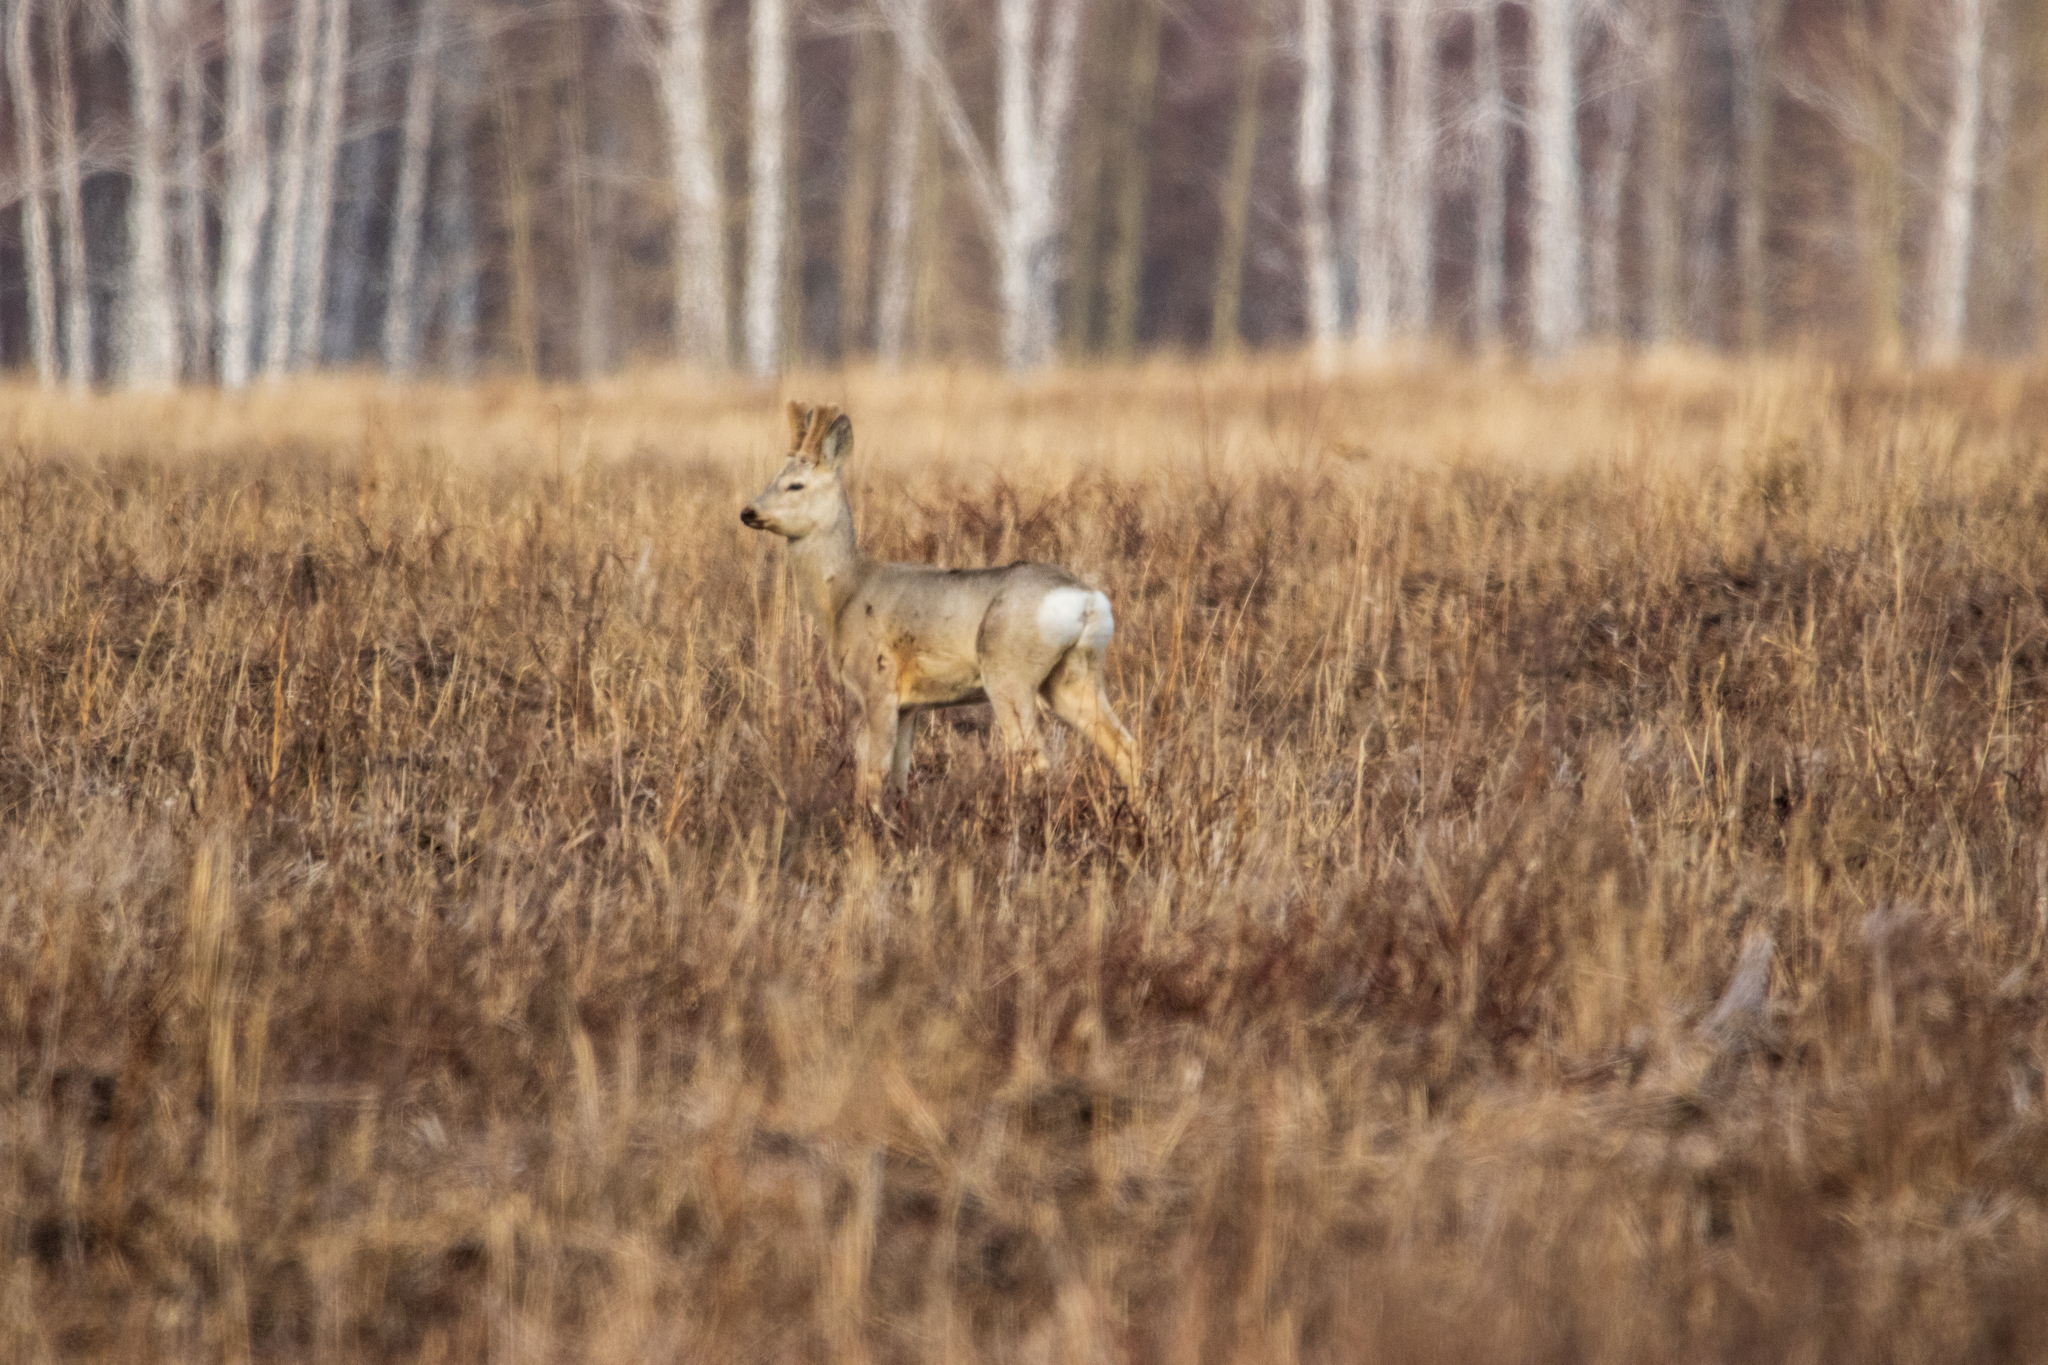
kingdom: Animalia
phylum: Chordata
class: Mammalia
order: Artiodactyla
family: Cervidae
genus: Capreolus
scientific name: Capreolus pygargus
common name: Siberian roe
